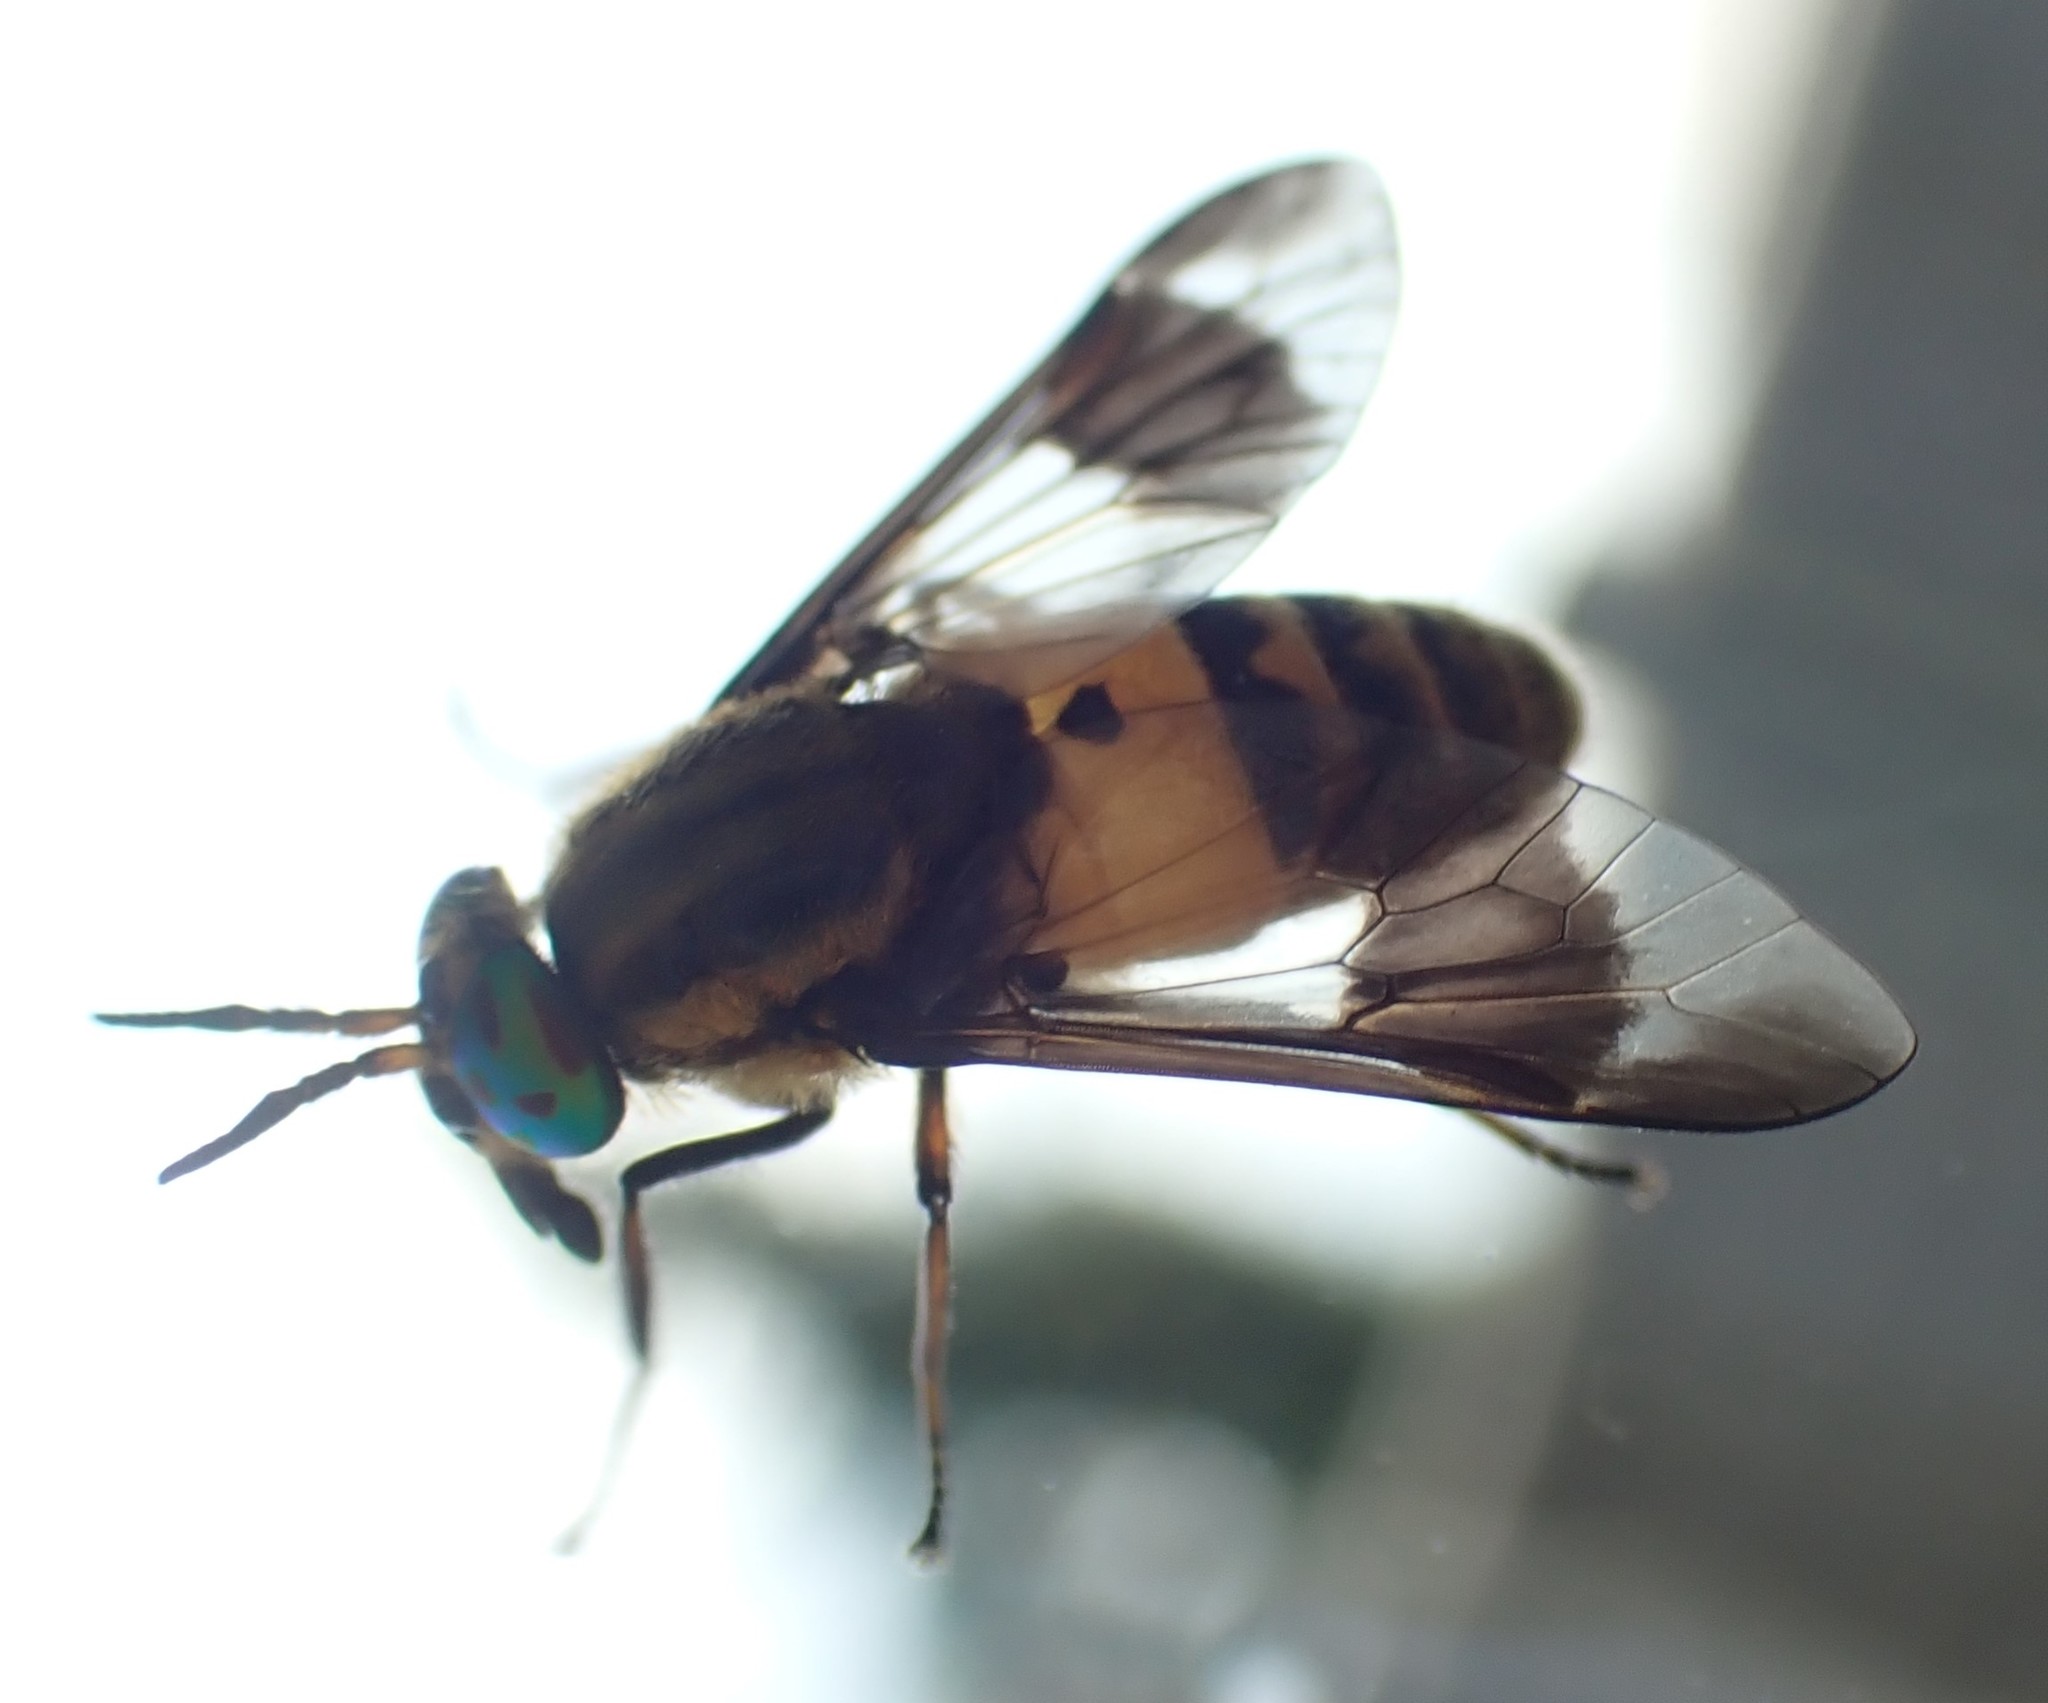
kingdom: Animalia
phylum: Arthropoda
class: Insecta
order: Diptera
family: Tabanidae
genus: Chrysops
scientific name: Chrysops viduatus
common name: Square-spot deerfly
